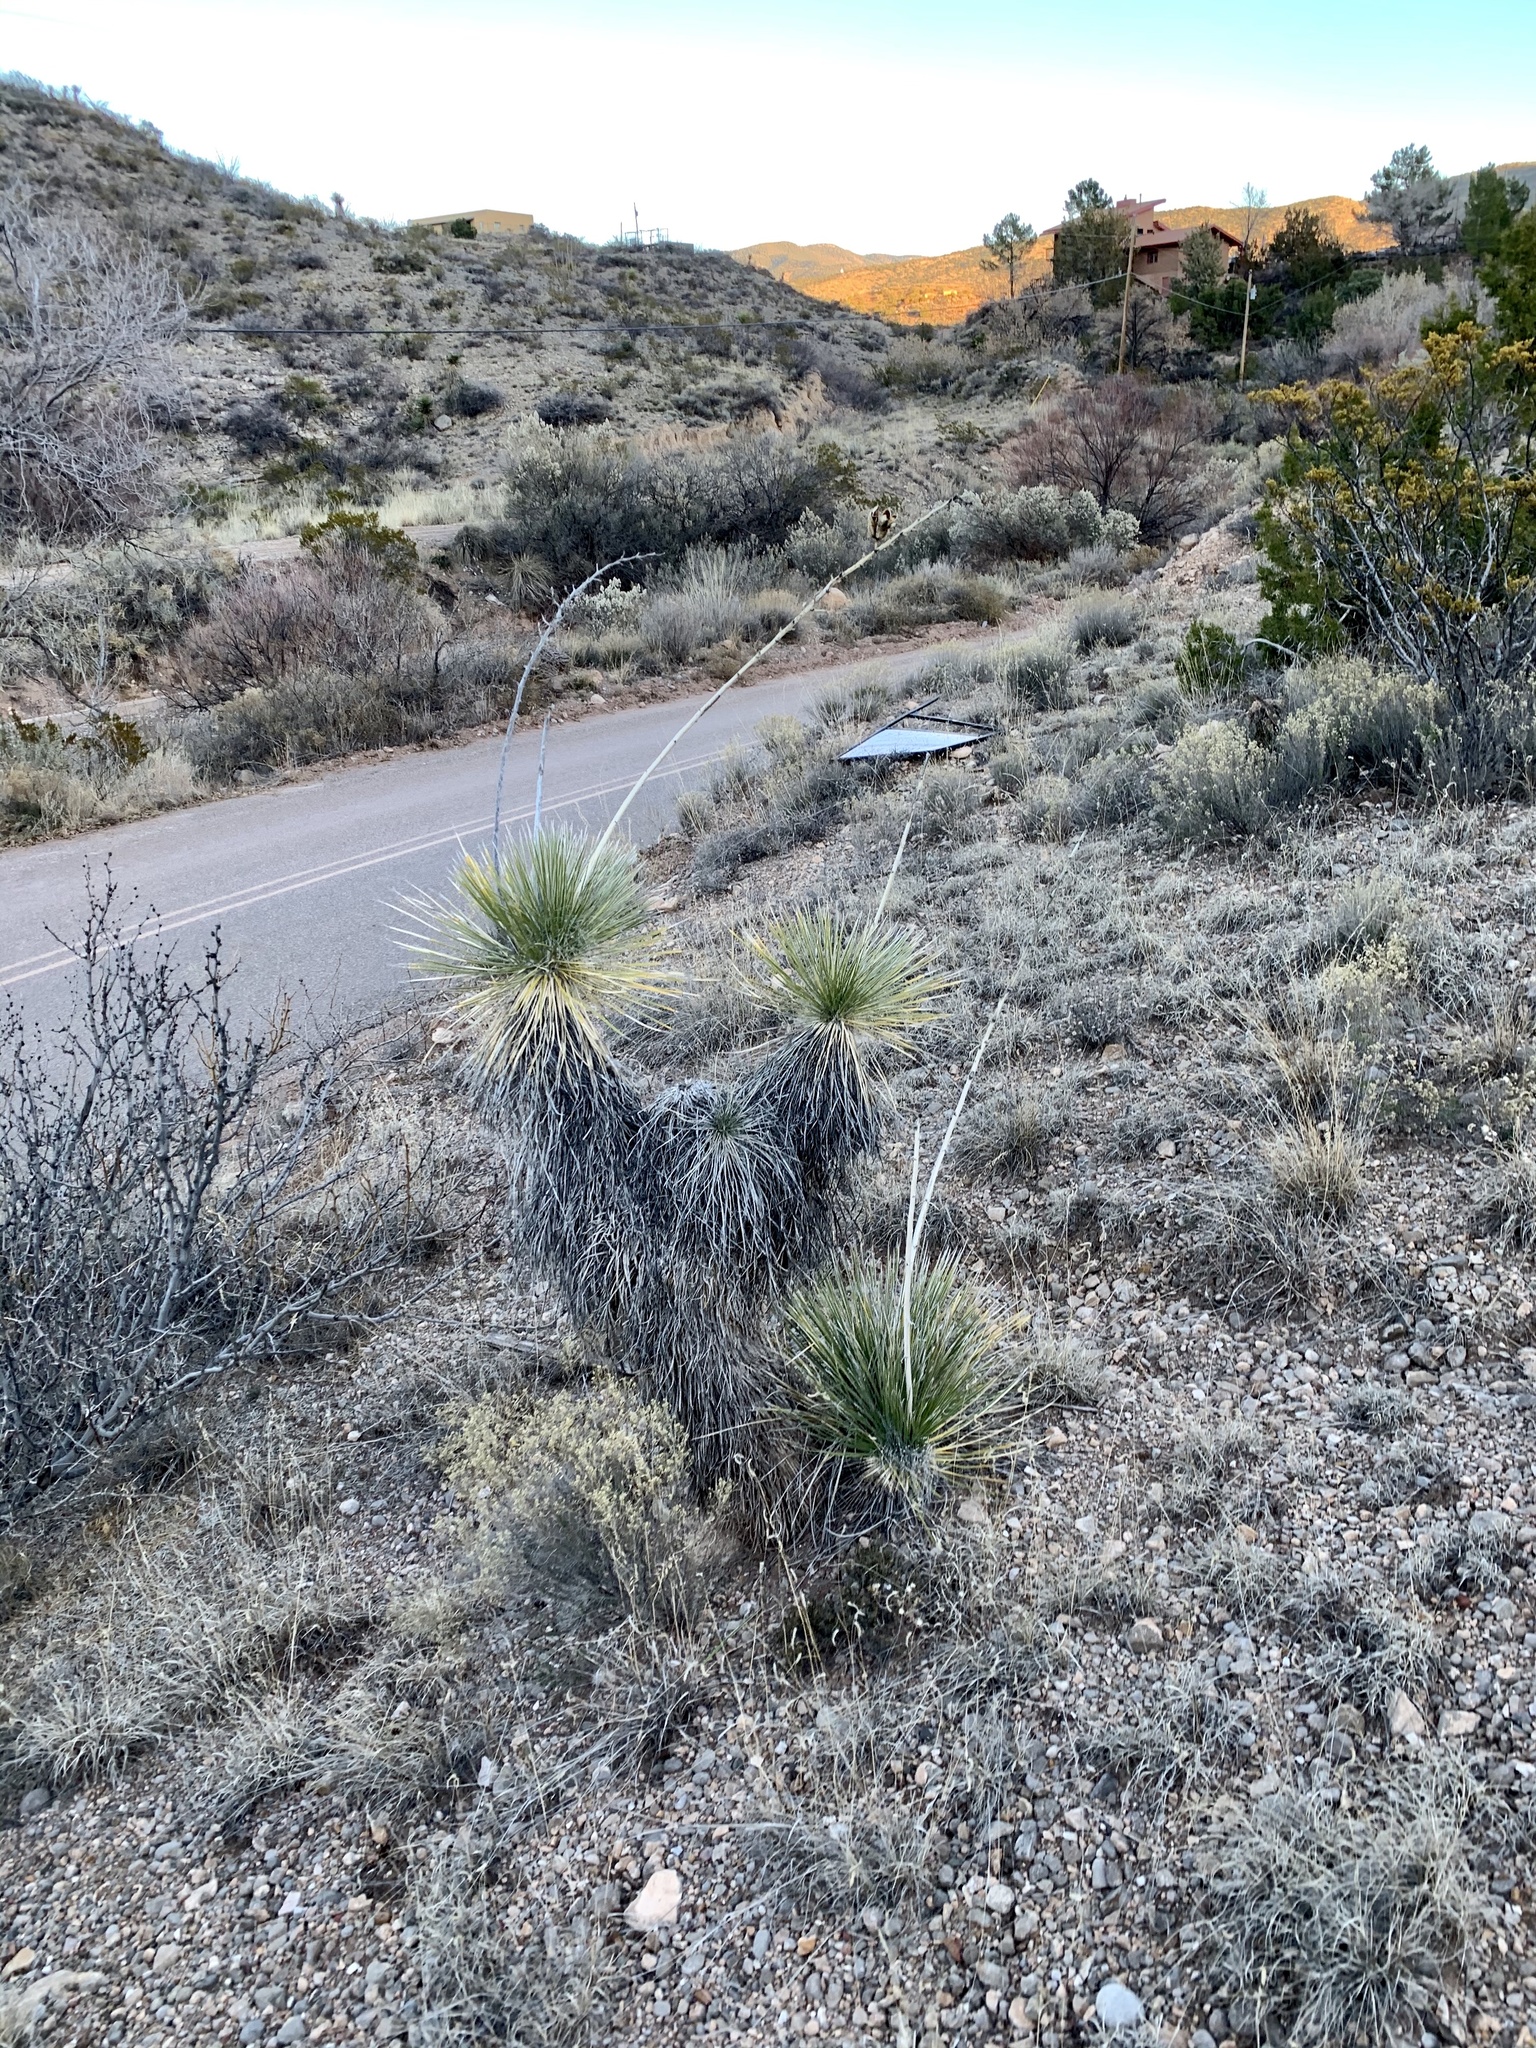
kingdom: Plantae
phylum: Tracheophyta
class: Liliopsida
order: Asparagales
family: Asparagaceae
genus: Yucca
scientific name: Yucca elata
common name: Palmella
